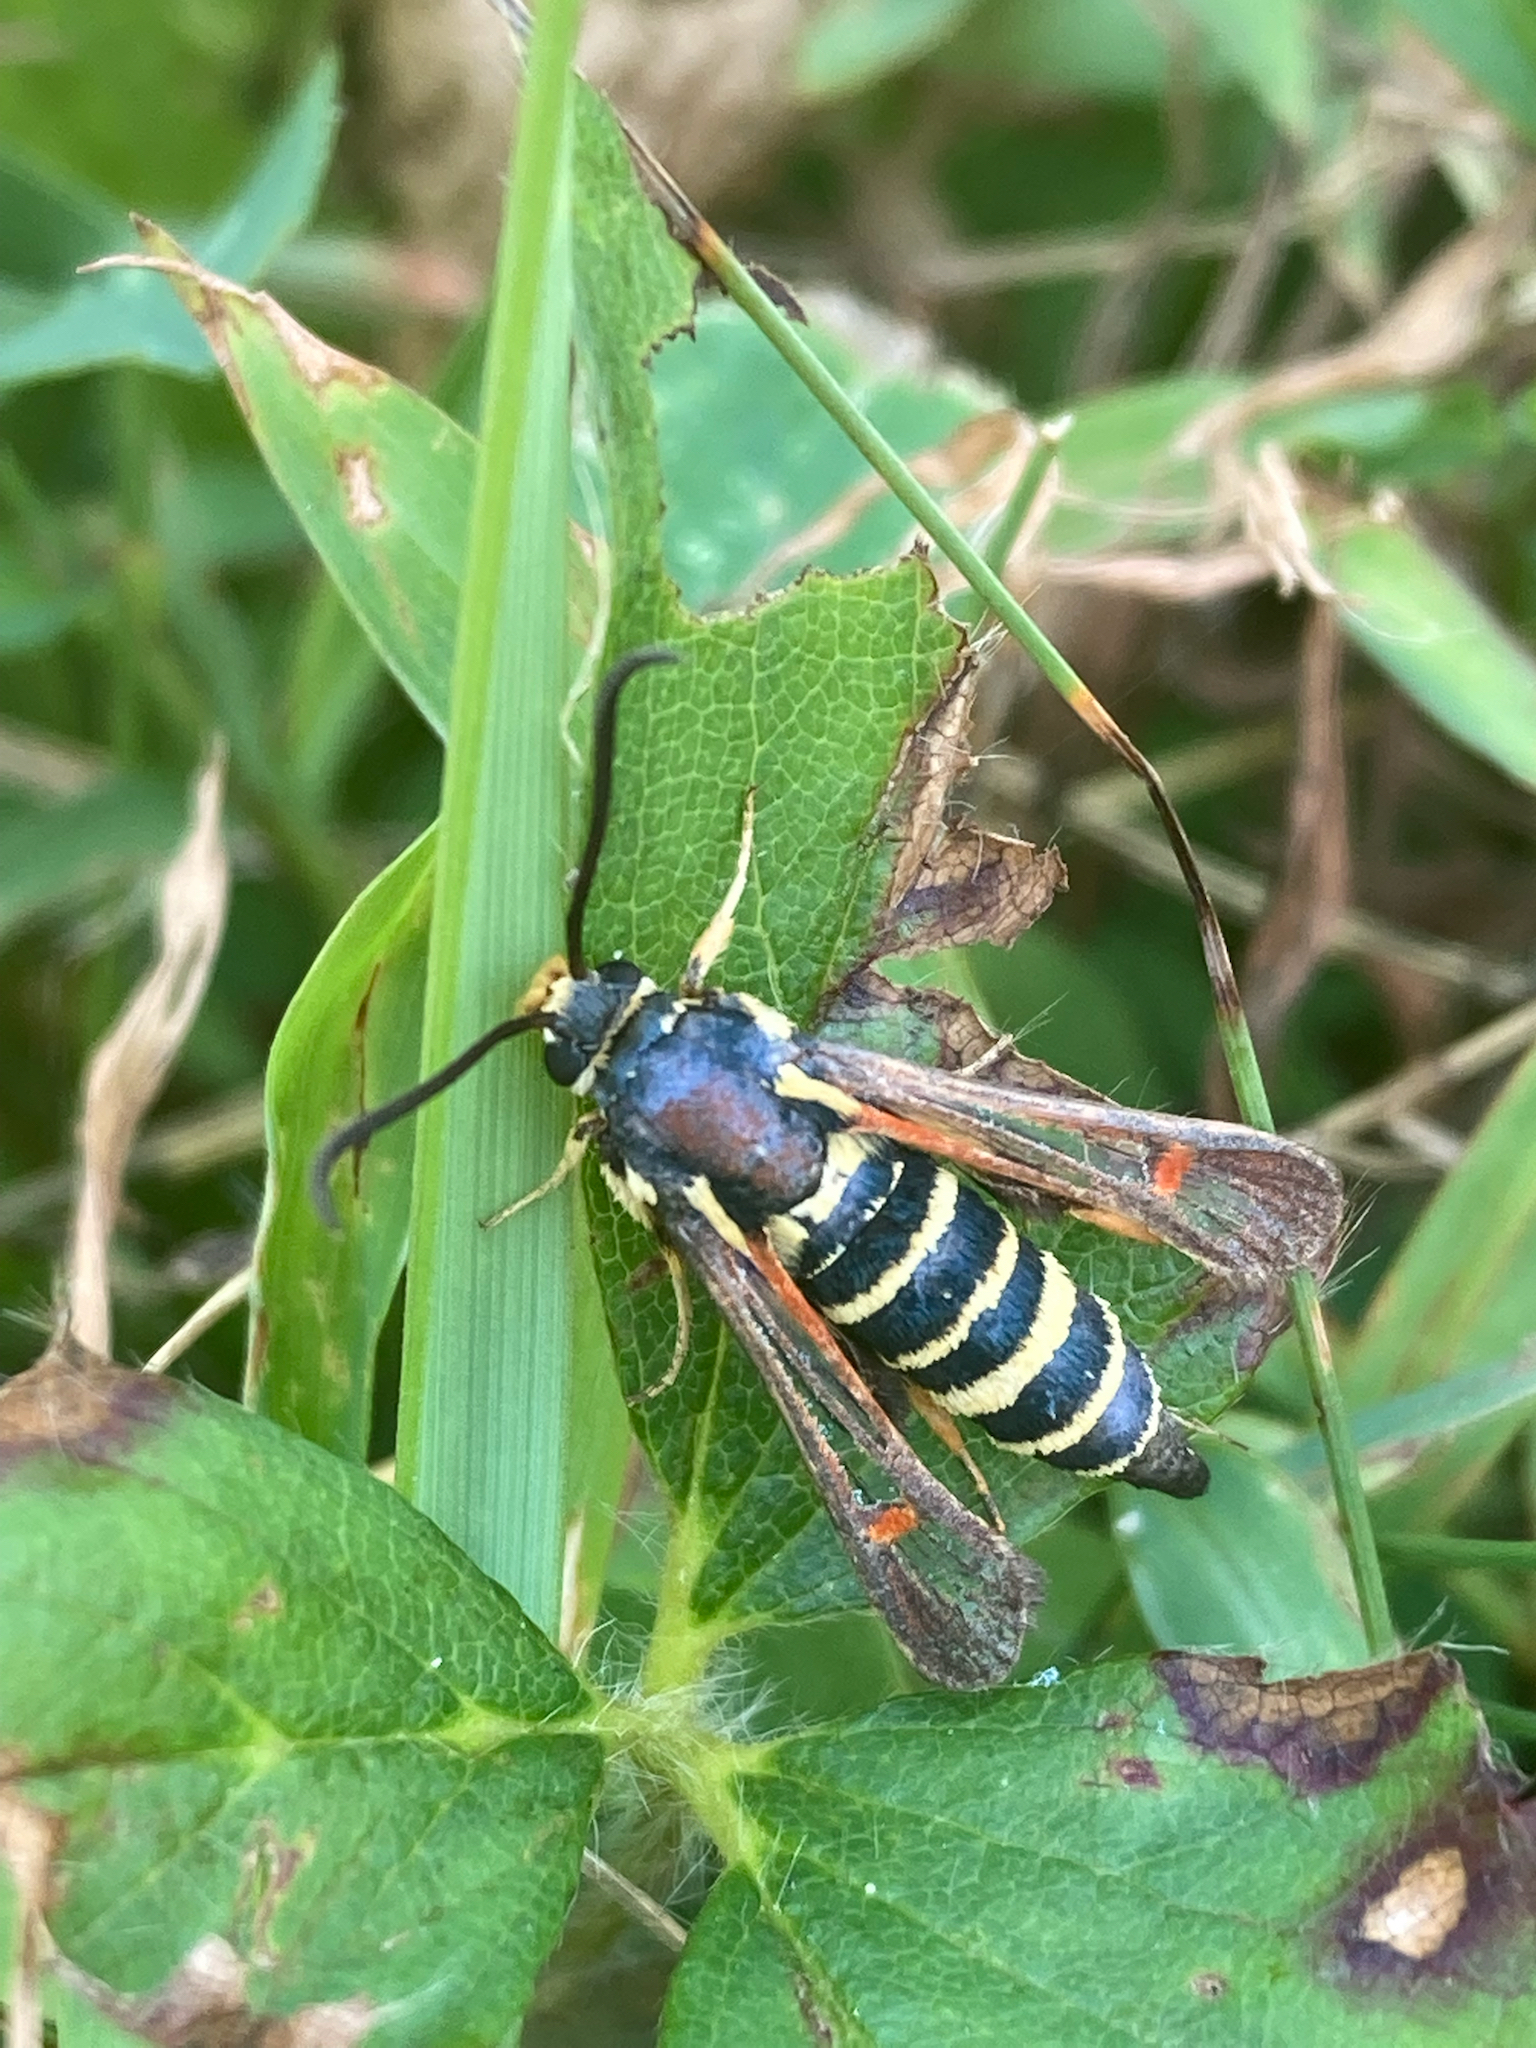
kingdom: Animalia
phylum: Arthropoda
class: Insecta
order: Lepidoptera
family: Sesiidae
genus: Synanthedon
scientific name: Synanthedon rileyana
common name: Riley's clearwing moth
